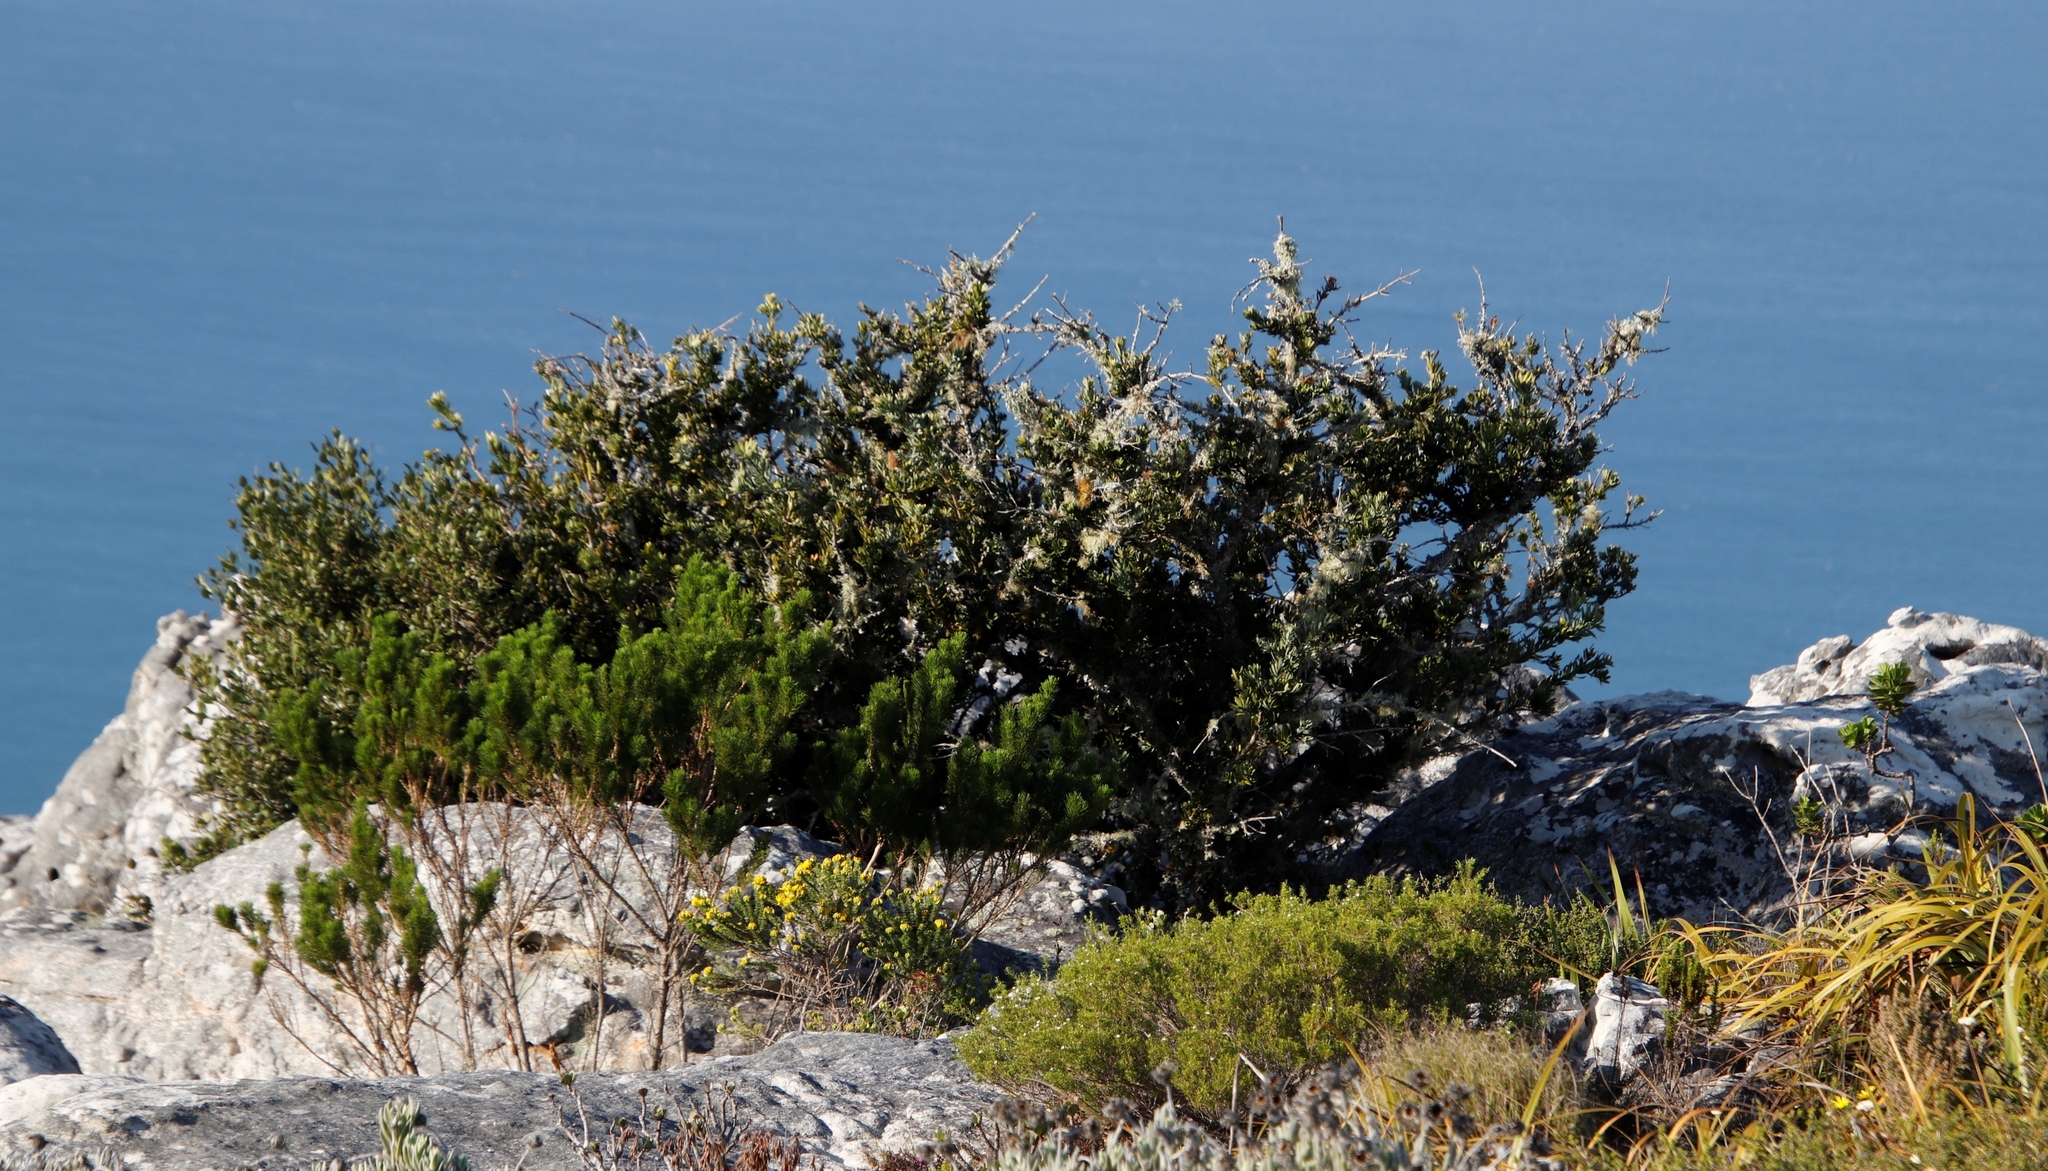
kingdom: Plantae
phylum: Tracheophyta
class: Magnoliopsida
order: Asterales
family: Asteraceae
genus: Tarchonanthus
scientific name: Tarchonanthus littoralis
